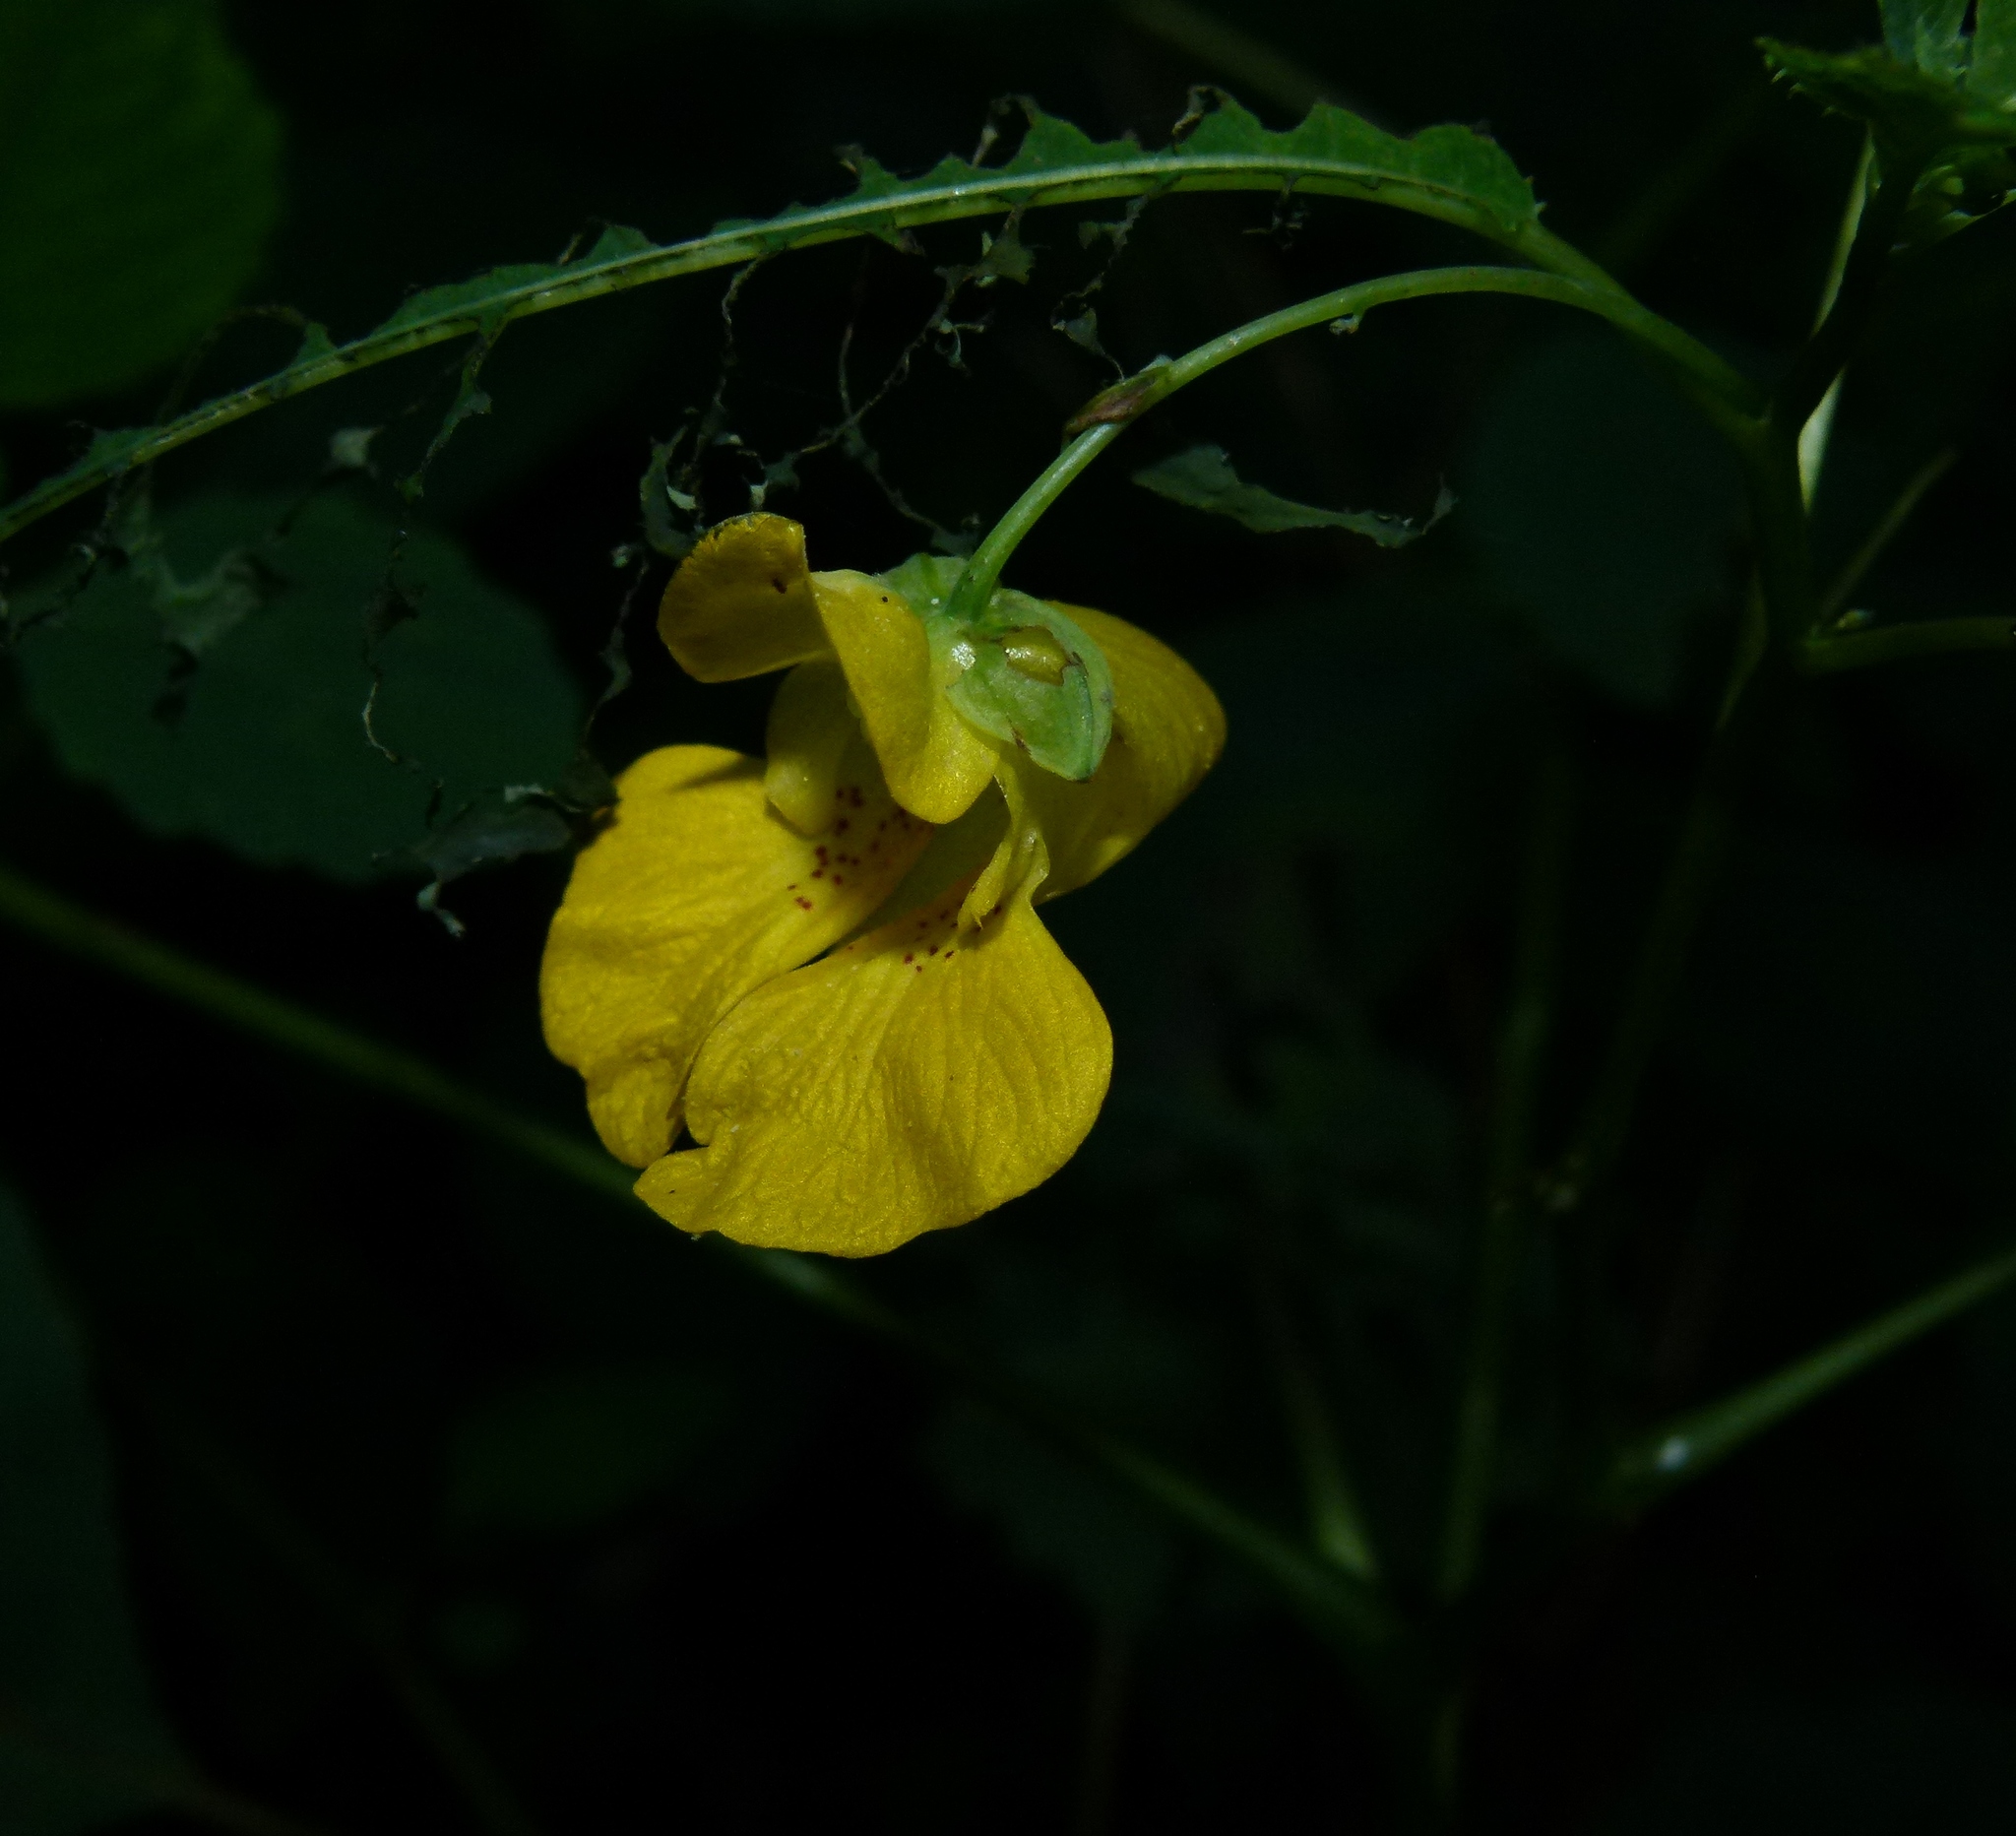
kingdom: Plantae
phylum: Tracheophyta
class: Magnoliopsida
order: Ericales
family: Balsaminaceae
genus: Impatiens
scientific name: Impatiens pallida
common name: Pale snapweed
